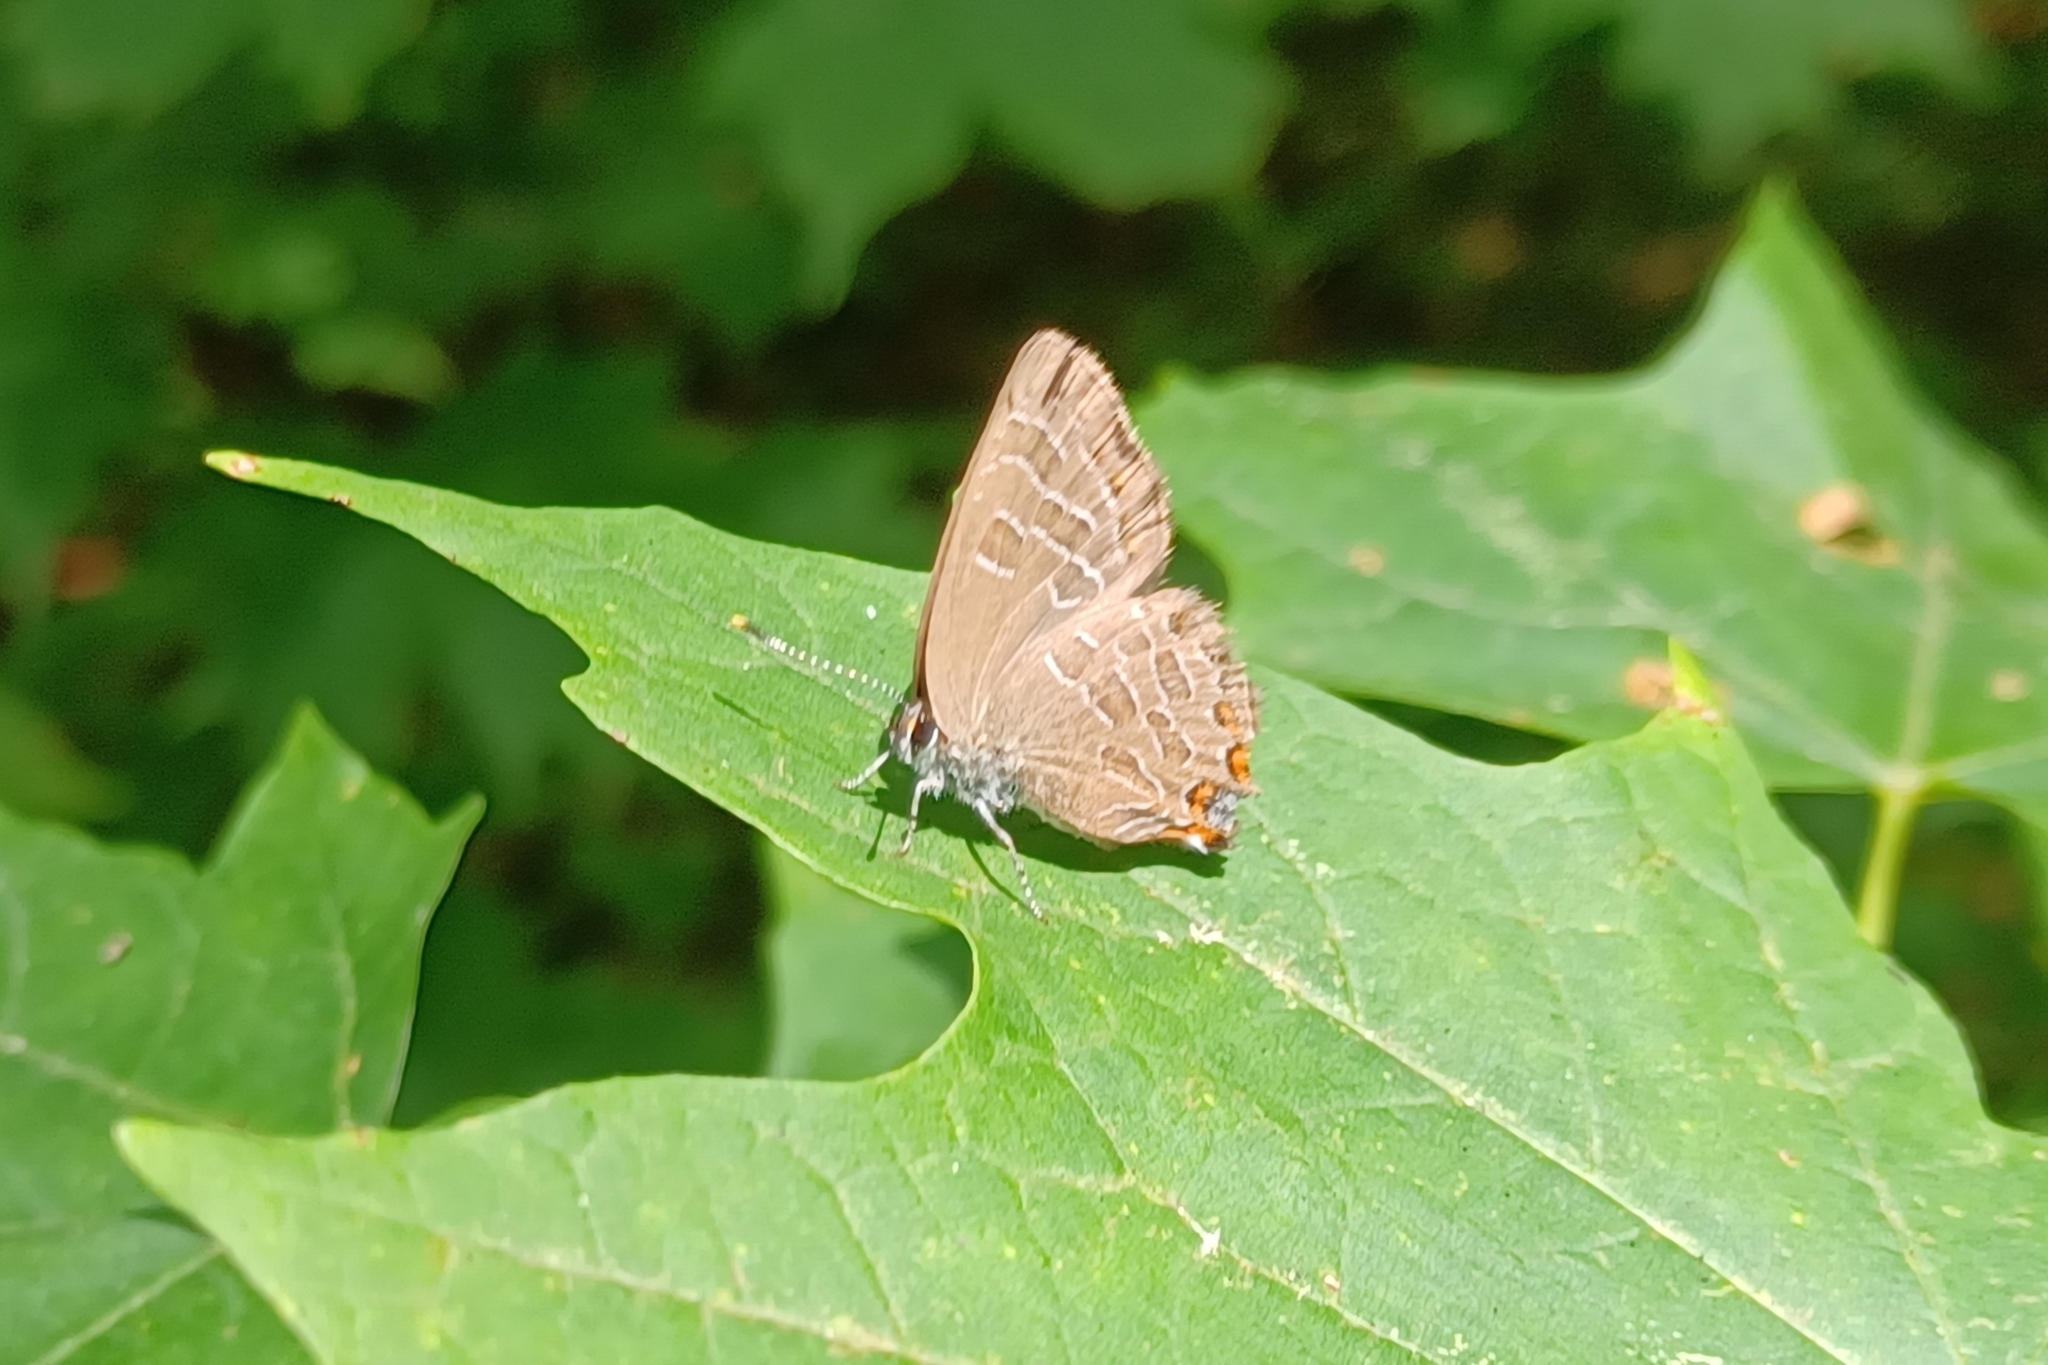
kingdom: Animalia
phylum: Arthropoda
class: Insecta
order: Lepidoptera
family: Lycaenidae
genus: Satyrium
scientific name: Satyrium liparops
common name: Striped hairstreak
